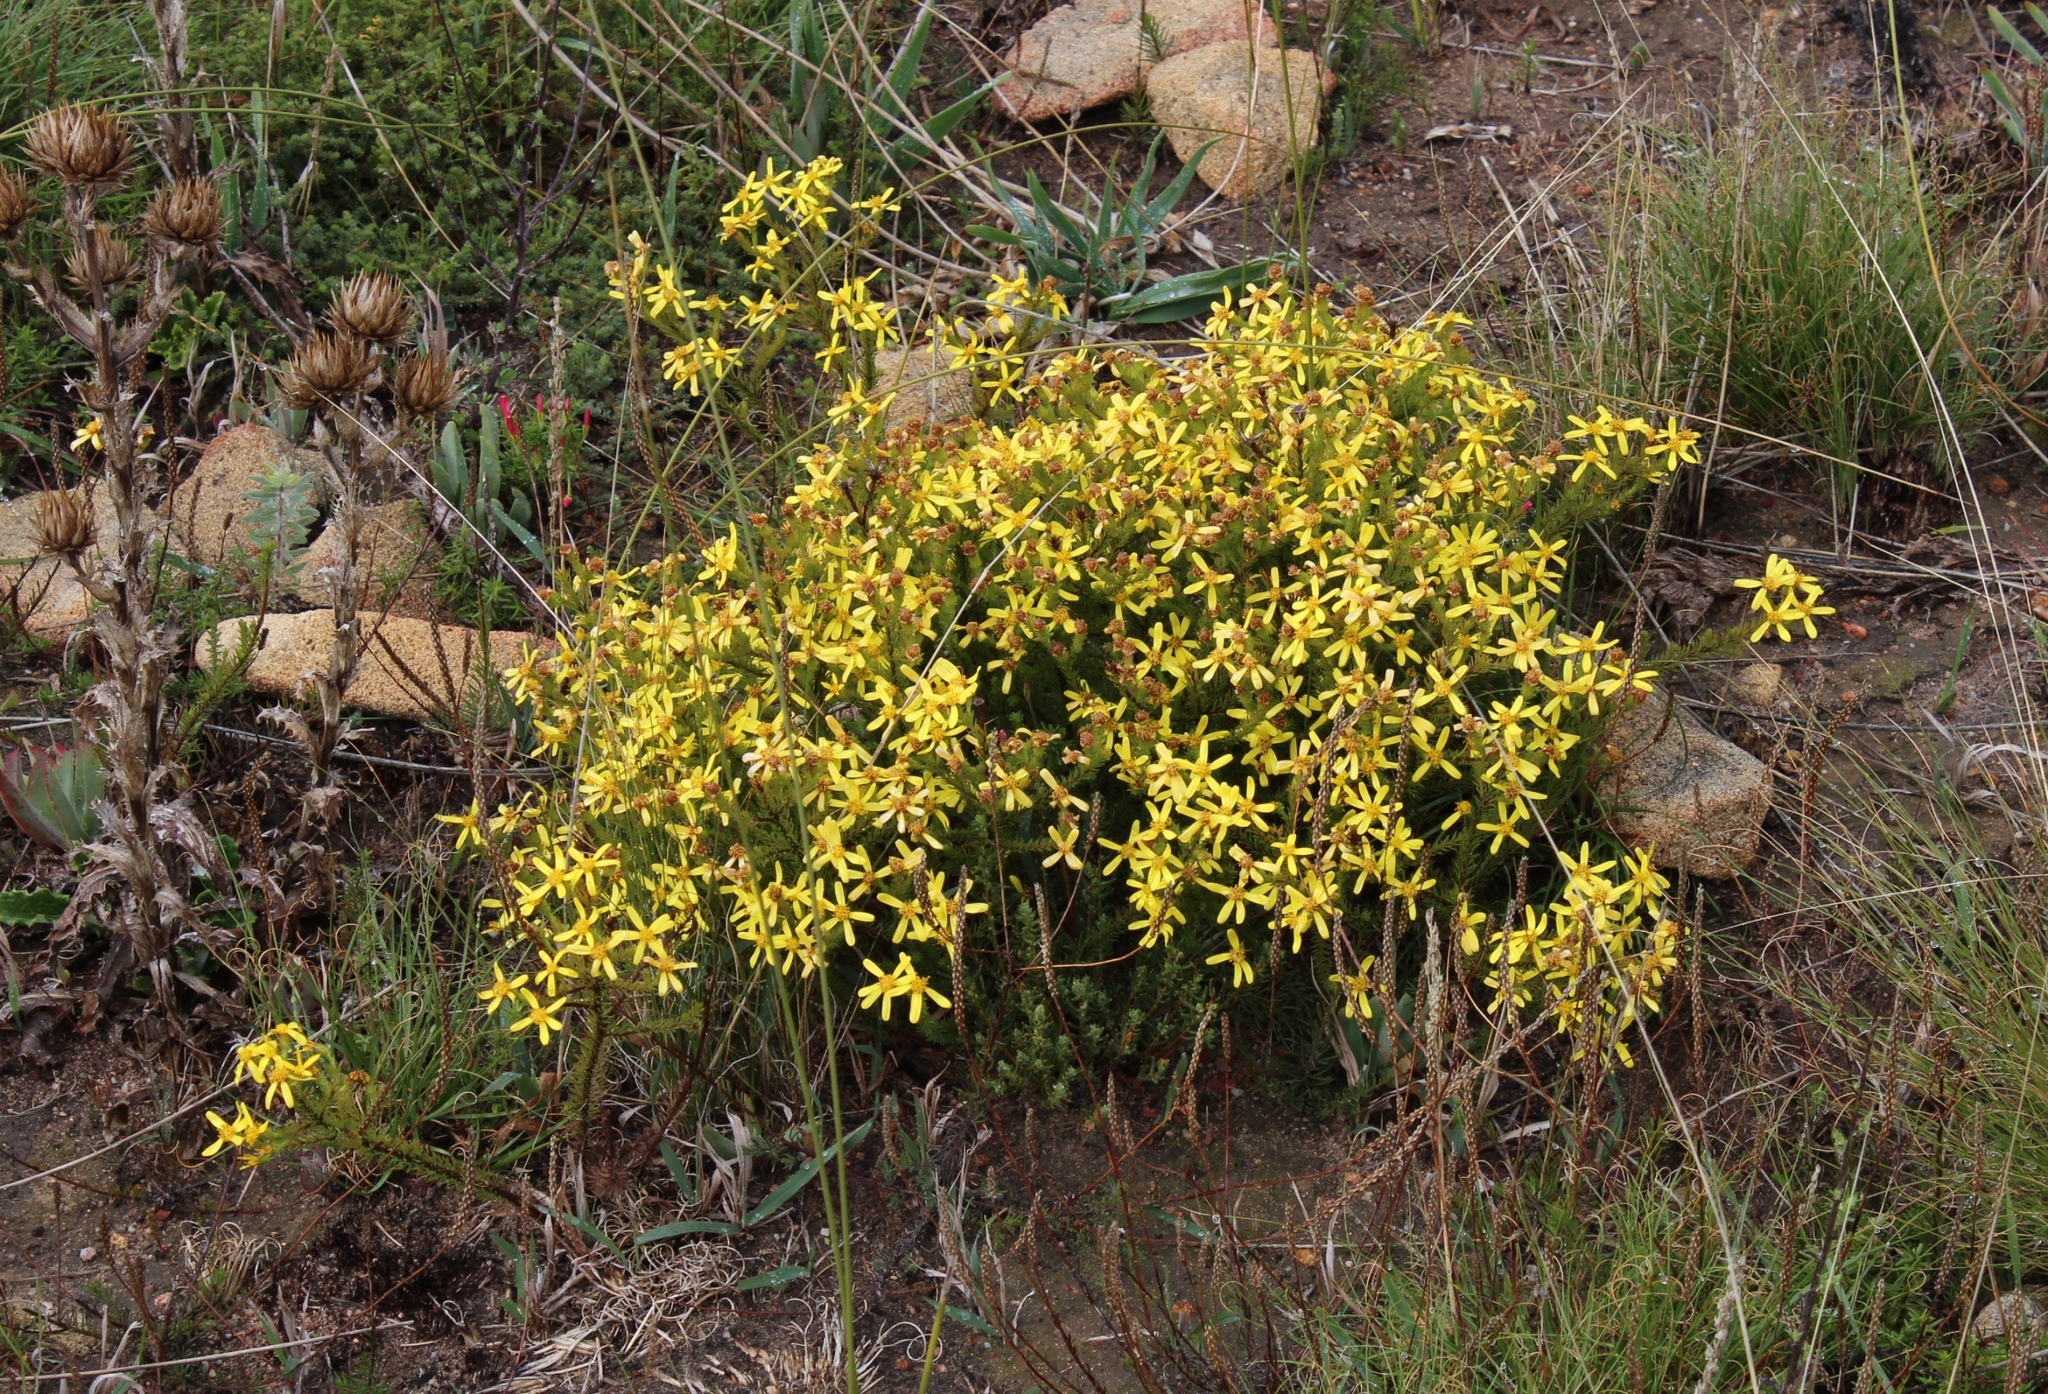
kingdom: Plantae
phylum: Tracheophyta
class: Magnoliopsida
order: Asterales
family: Asteraceae
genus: Senecio
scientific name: Senecio pinifolius
